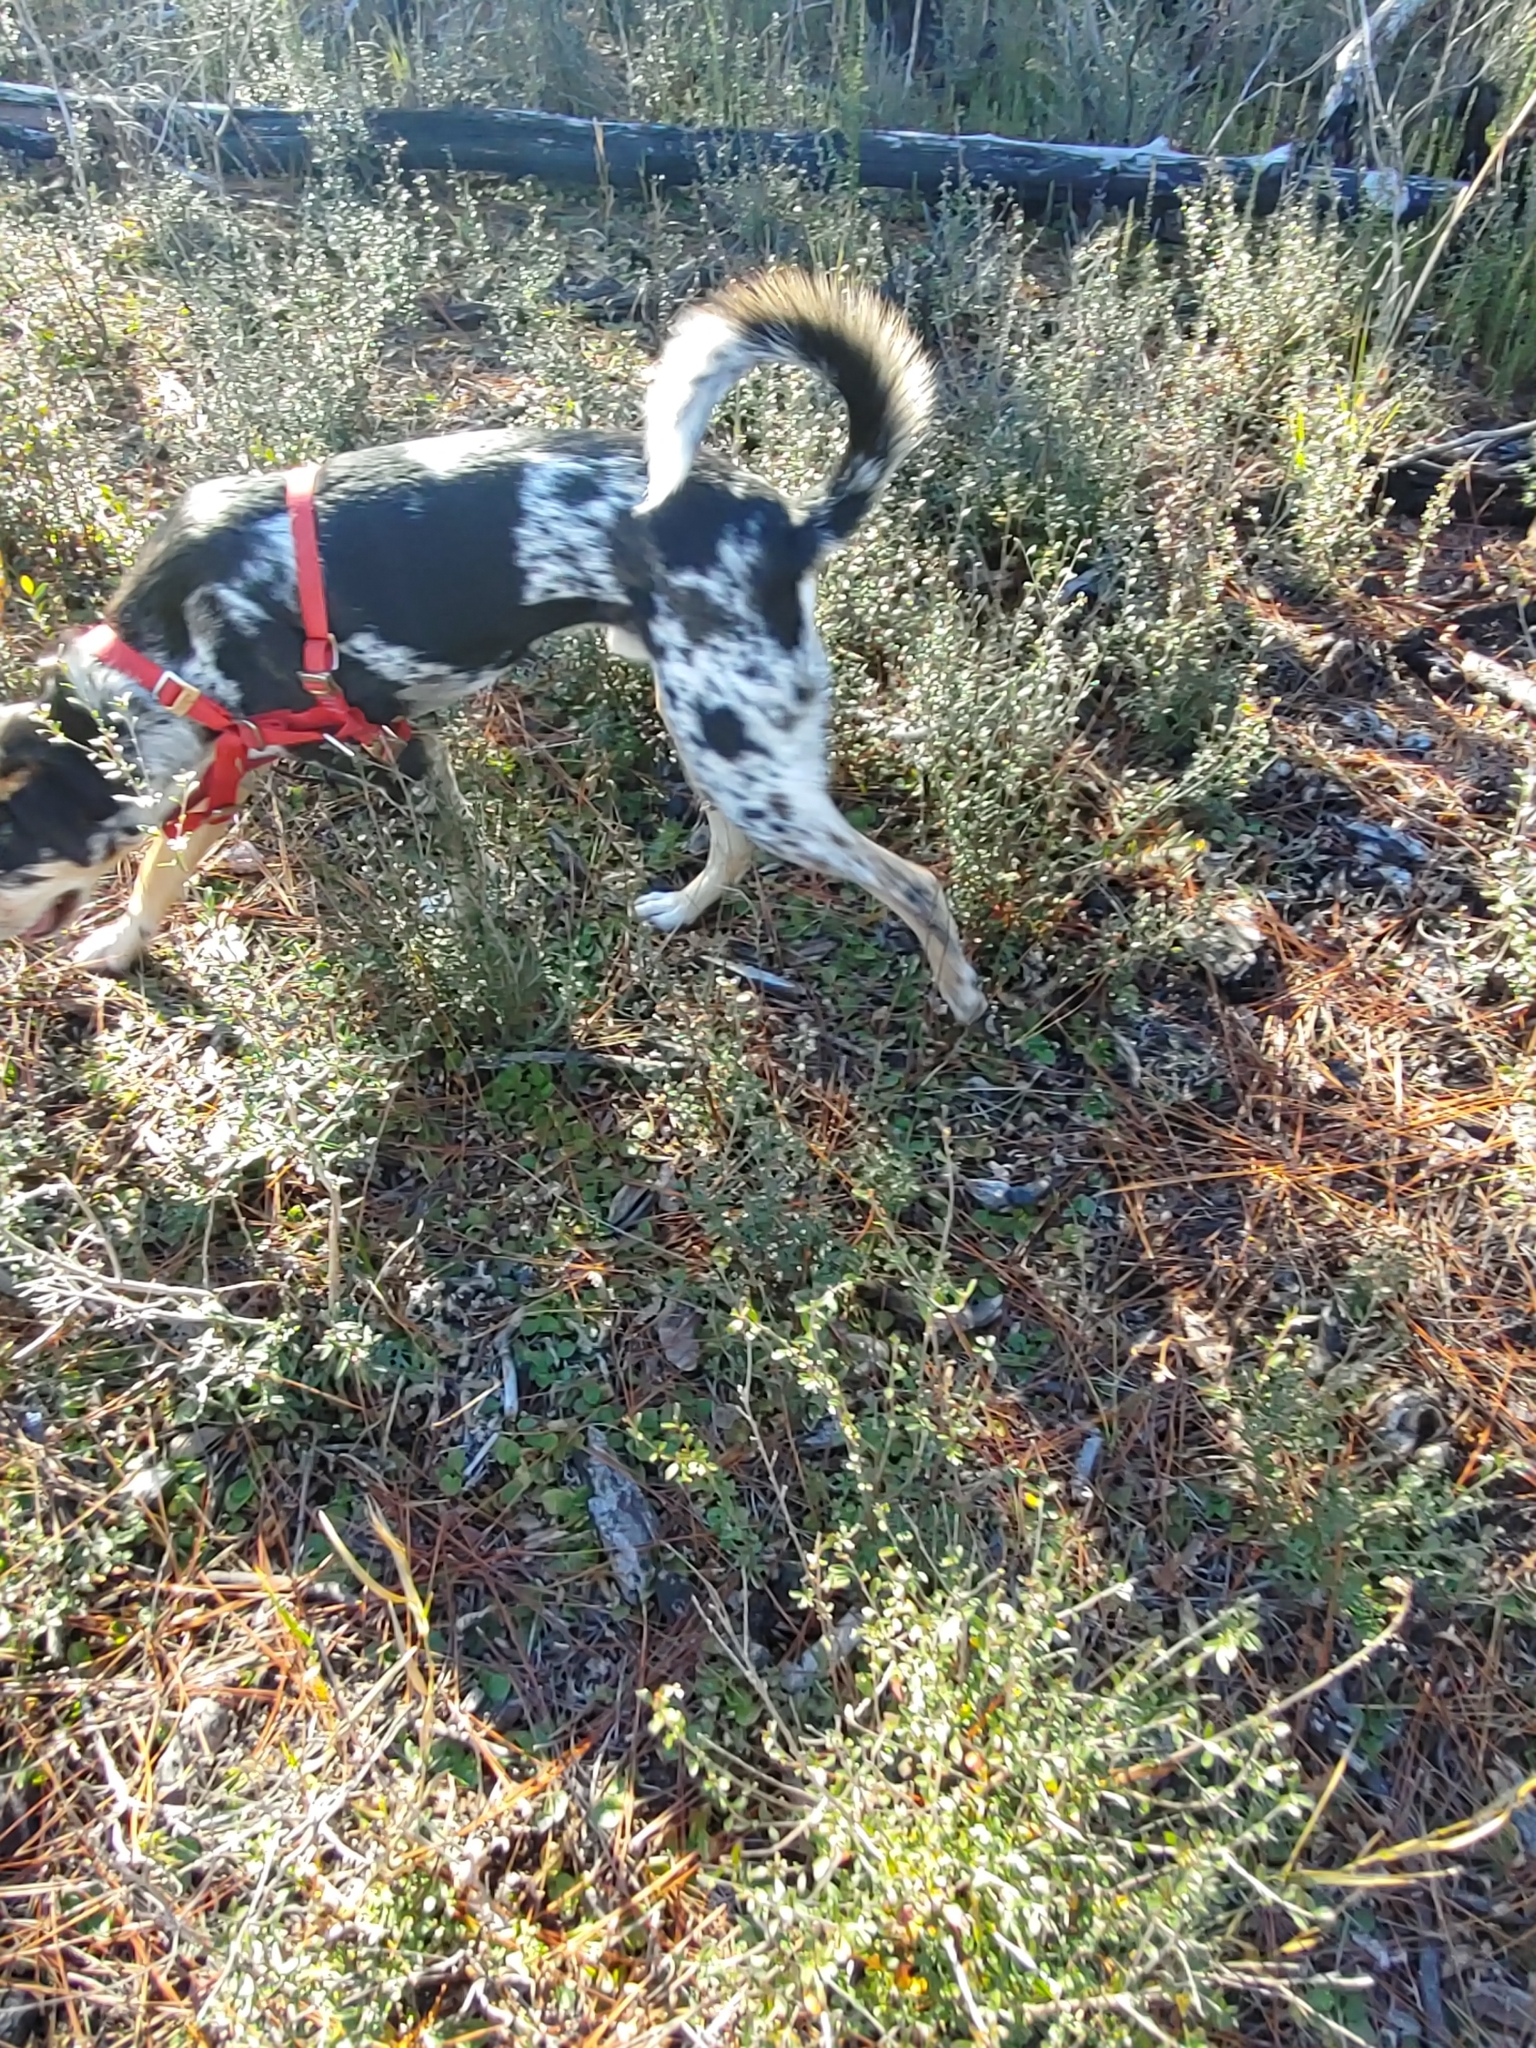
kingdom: Plantae
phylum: Tracheophyta
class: Magnoliopsida
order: Ericales
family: Cyrillaceae
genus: Cliftonia
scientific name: Cliftonia monophylla
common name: Titi
